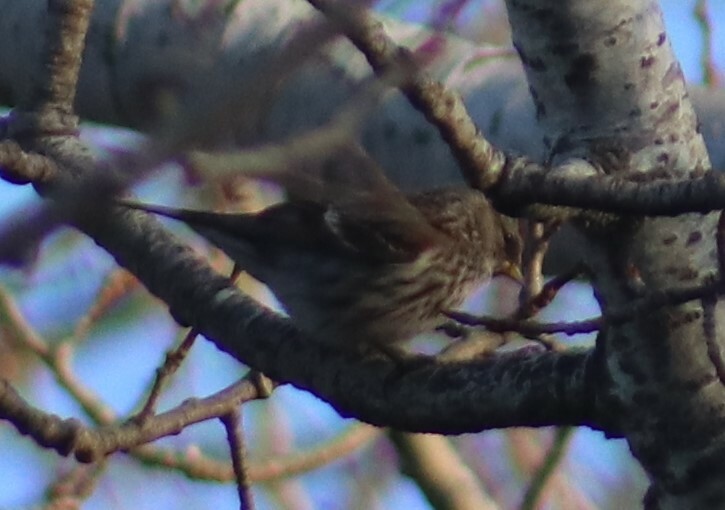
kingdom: Animalia
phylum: Chordata
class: Aves
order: Passeriformes
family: Fringillidae
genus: Acanthis
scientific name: Acanthis flammea
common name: Common redpoll
